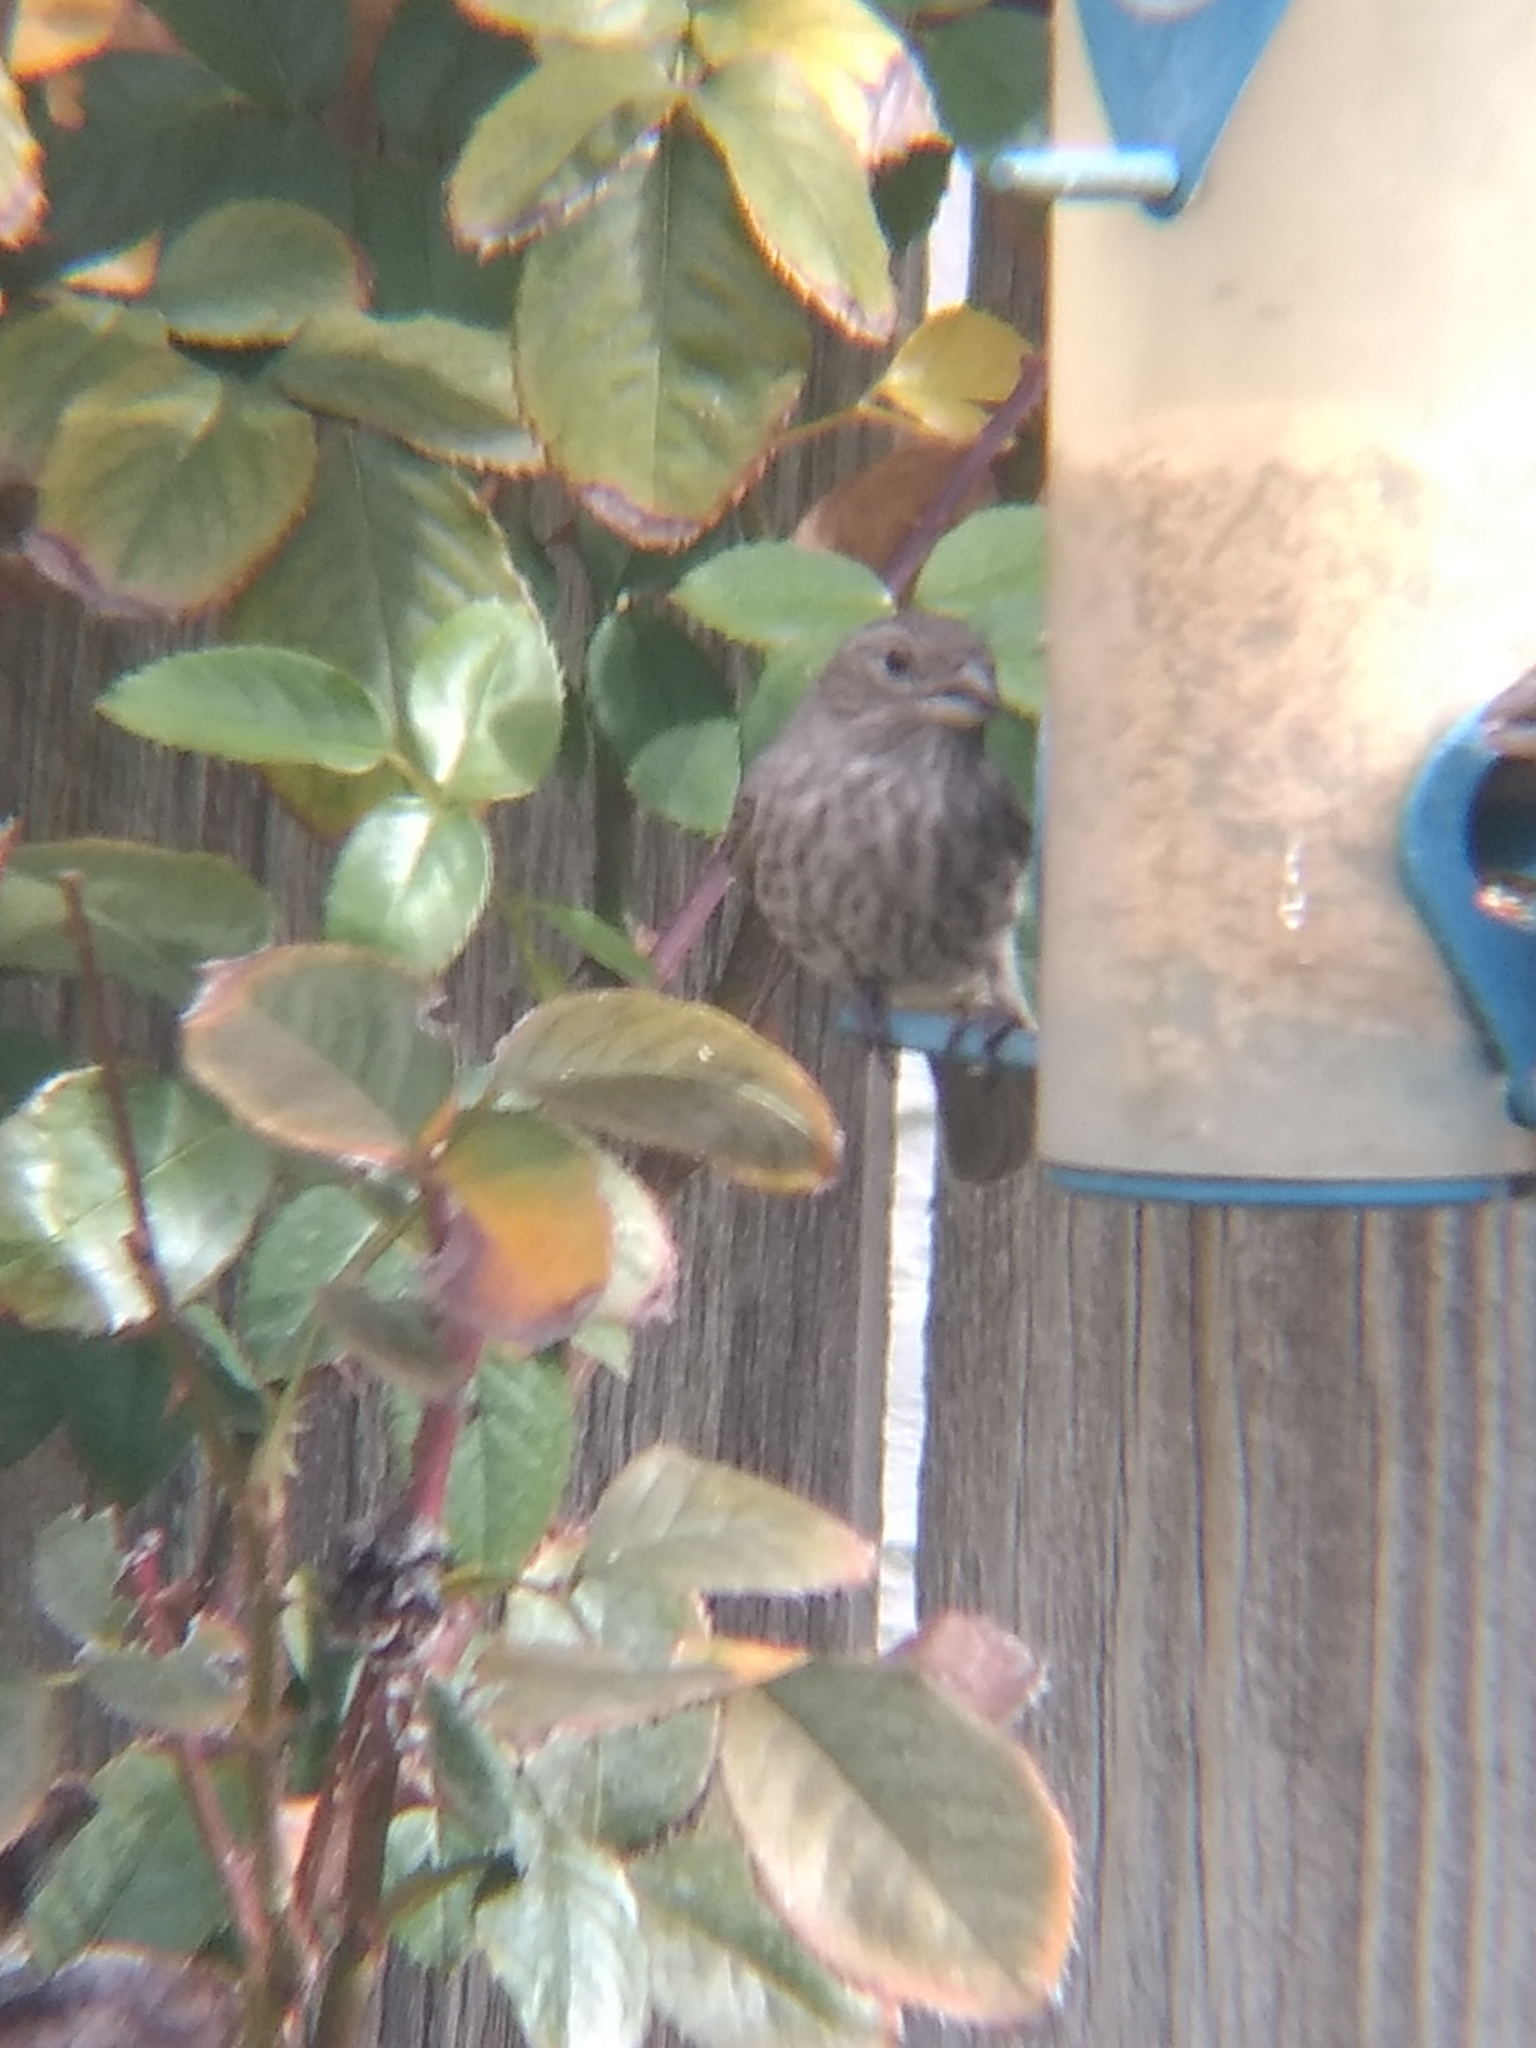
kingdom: Animalia
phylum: Chordata
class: Aves
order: Passeriformes
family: Fringillidae
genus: Haemorhous
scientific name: Haemorhous mexicanus
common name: House finch
